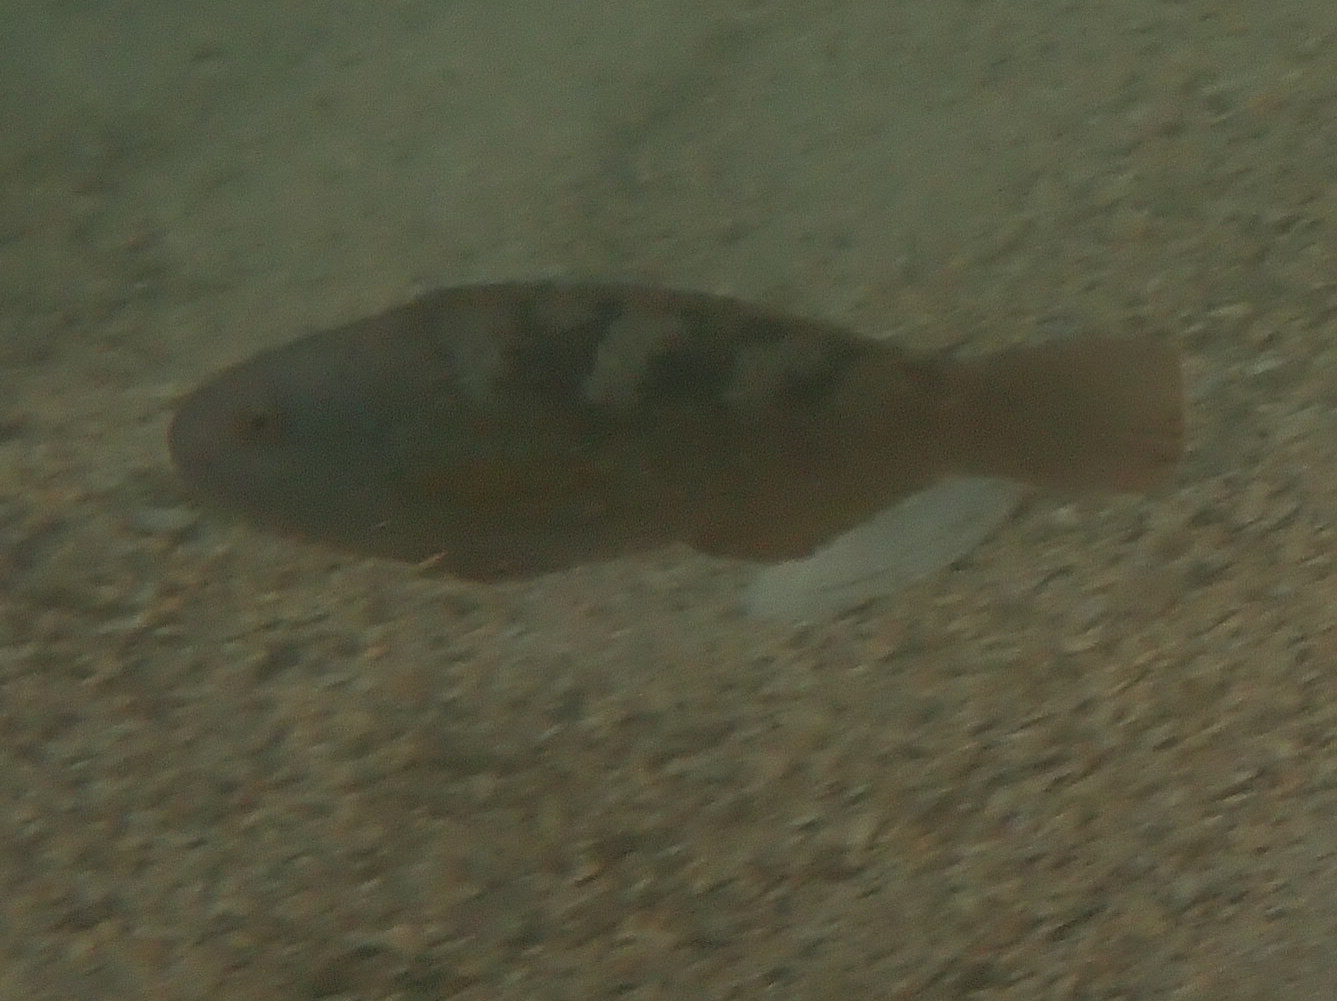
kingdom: Animalia
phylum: Chordata
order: Perciformes
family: Scaridae
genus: Scarus
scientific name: Scarus hoefleri
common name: Guinean parrotfish
